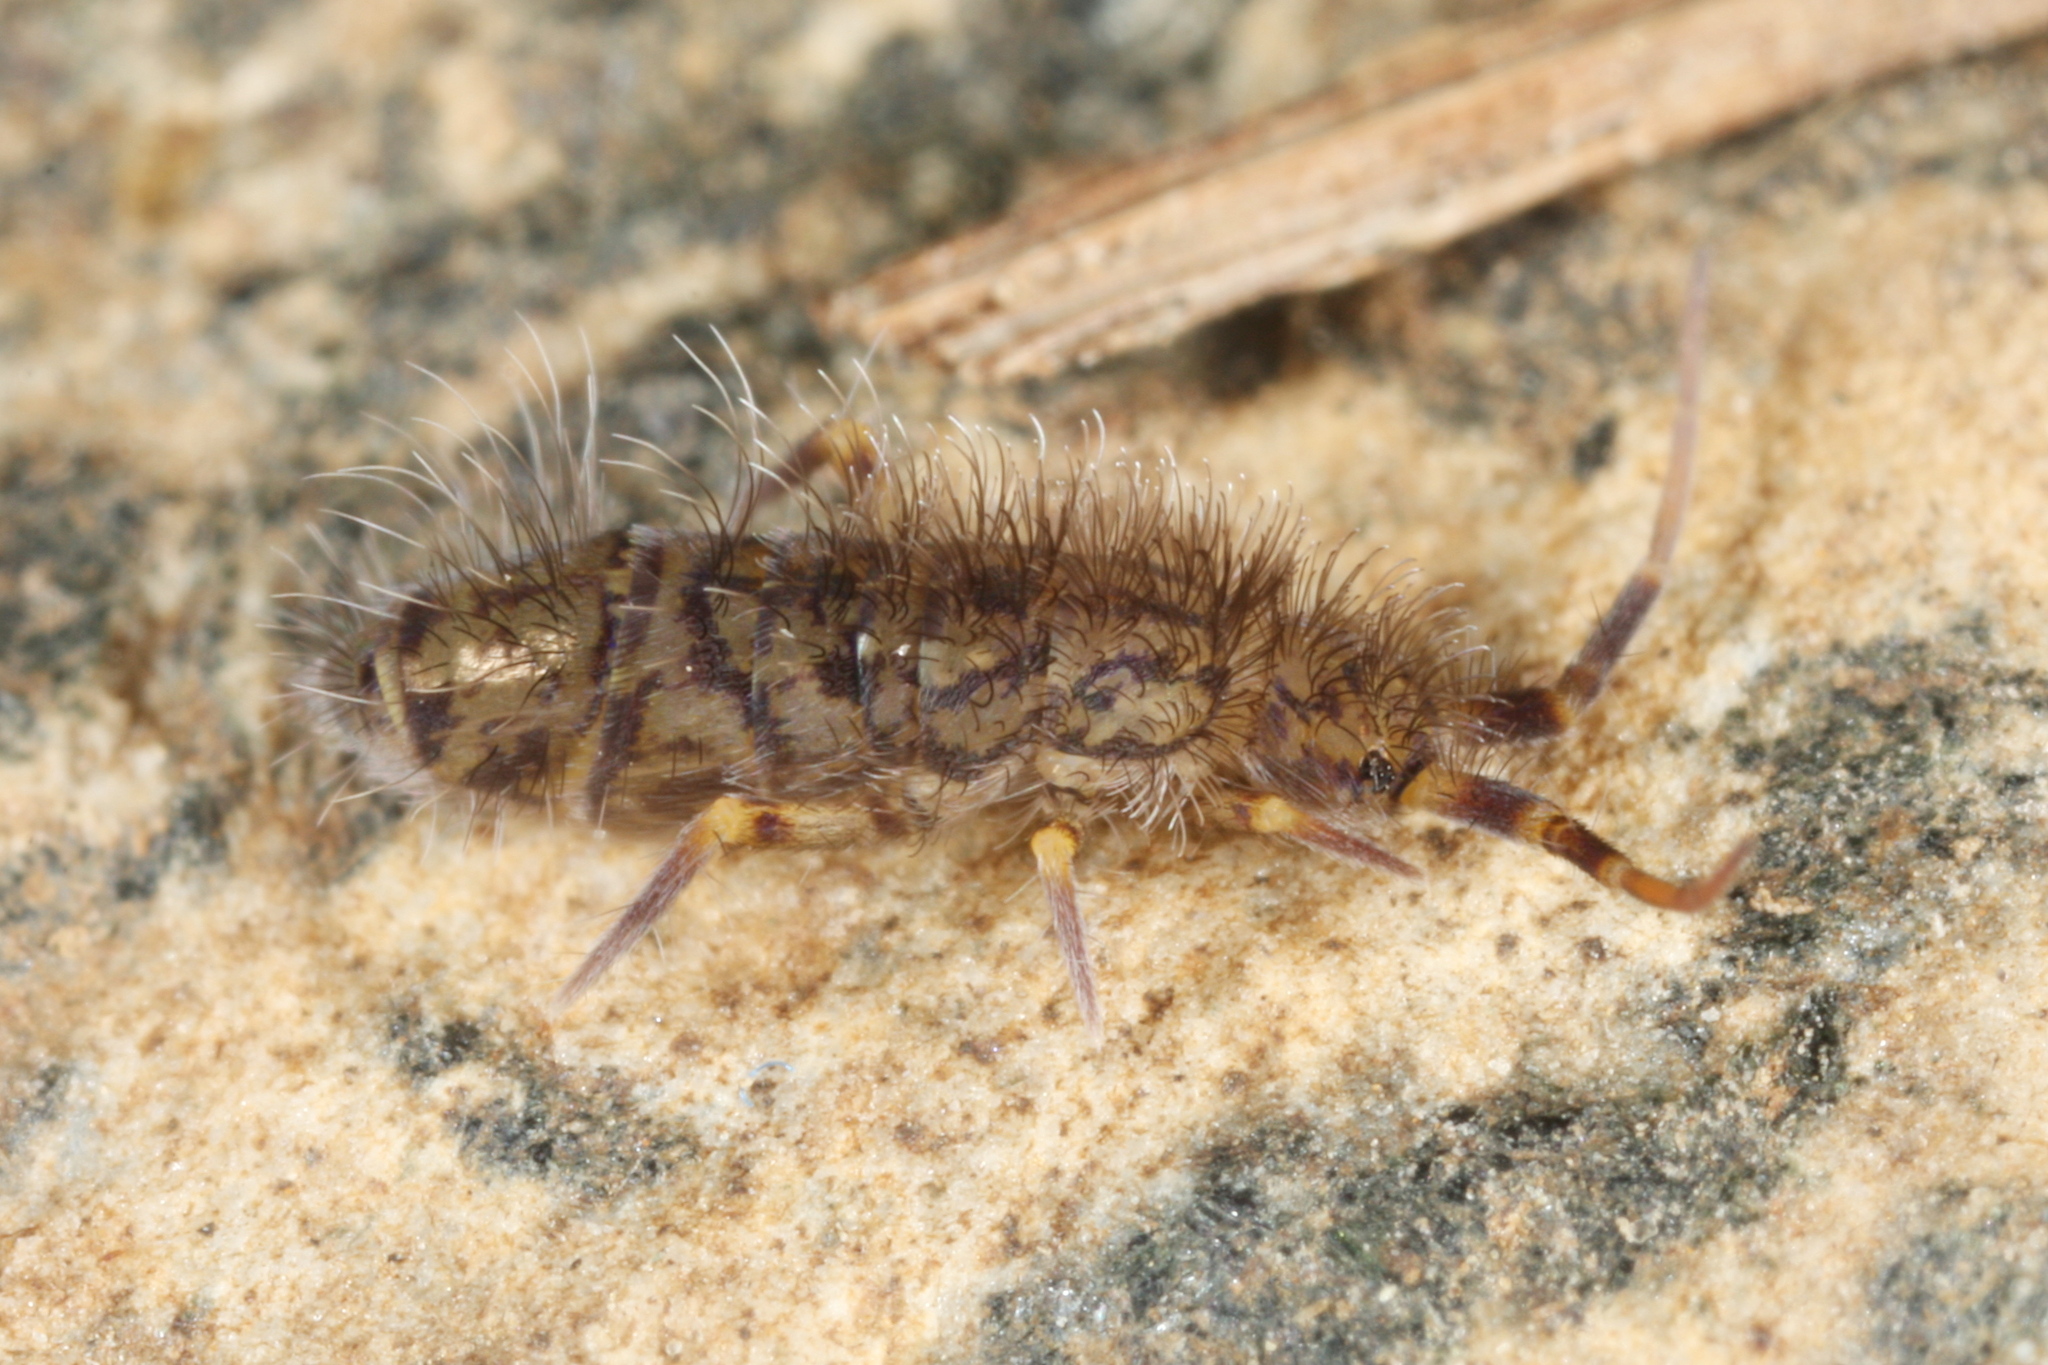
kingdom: Animalia
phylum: Arthropoda
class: Collembola
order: Entomobryomorpha
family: Orchesellidae
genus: Orchesella
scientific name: Orchesella villosa
